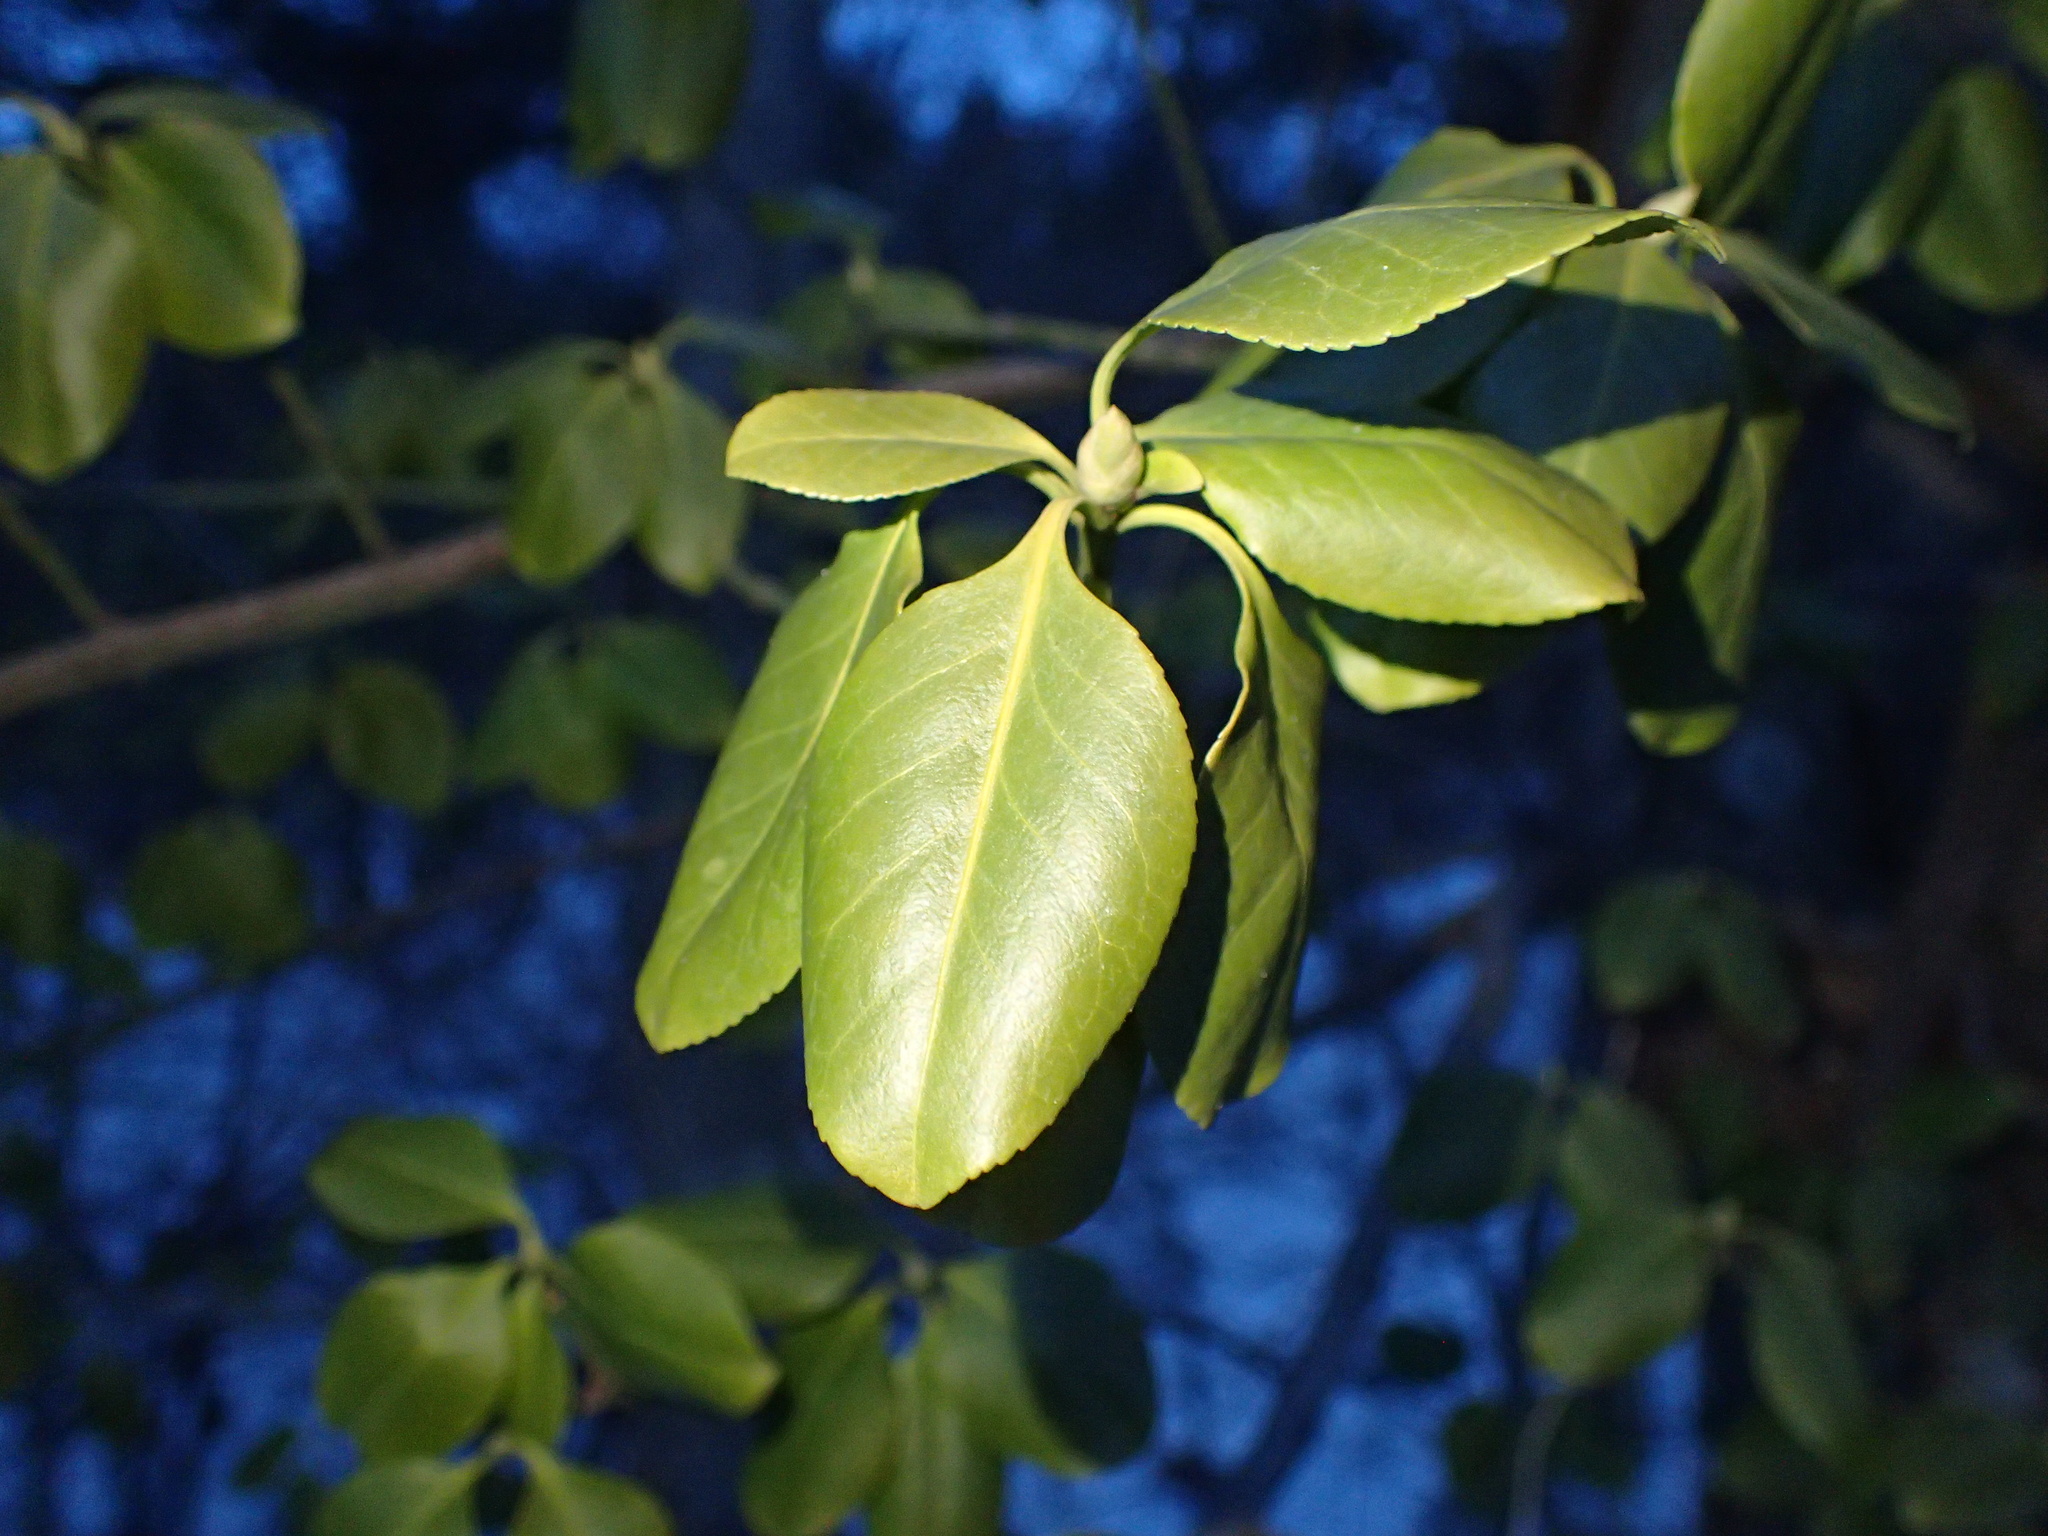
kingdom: Plantae
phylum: Tracheophyta
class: Magnoliopsida
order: Celastrales
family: Celastraceae
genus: Euonymus
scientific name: Euonymus fortunei
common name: Climbing euonymus
